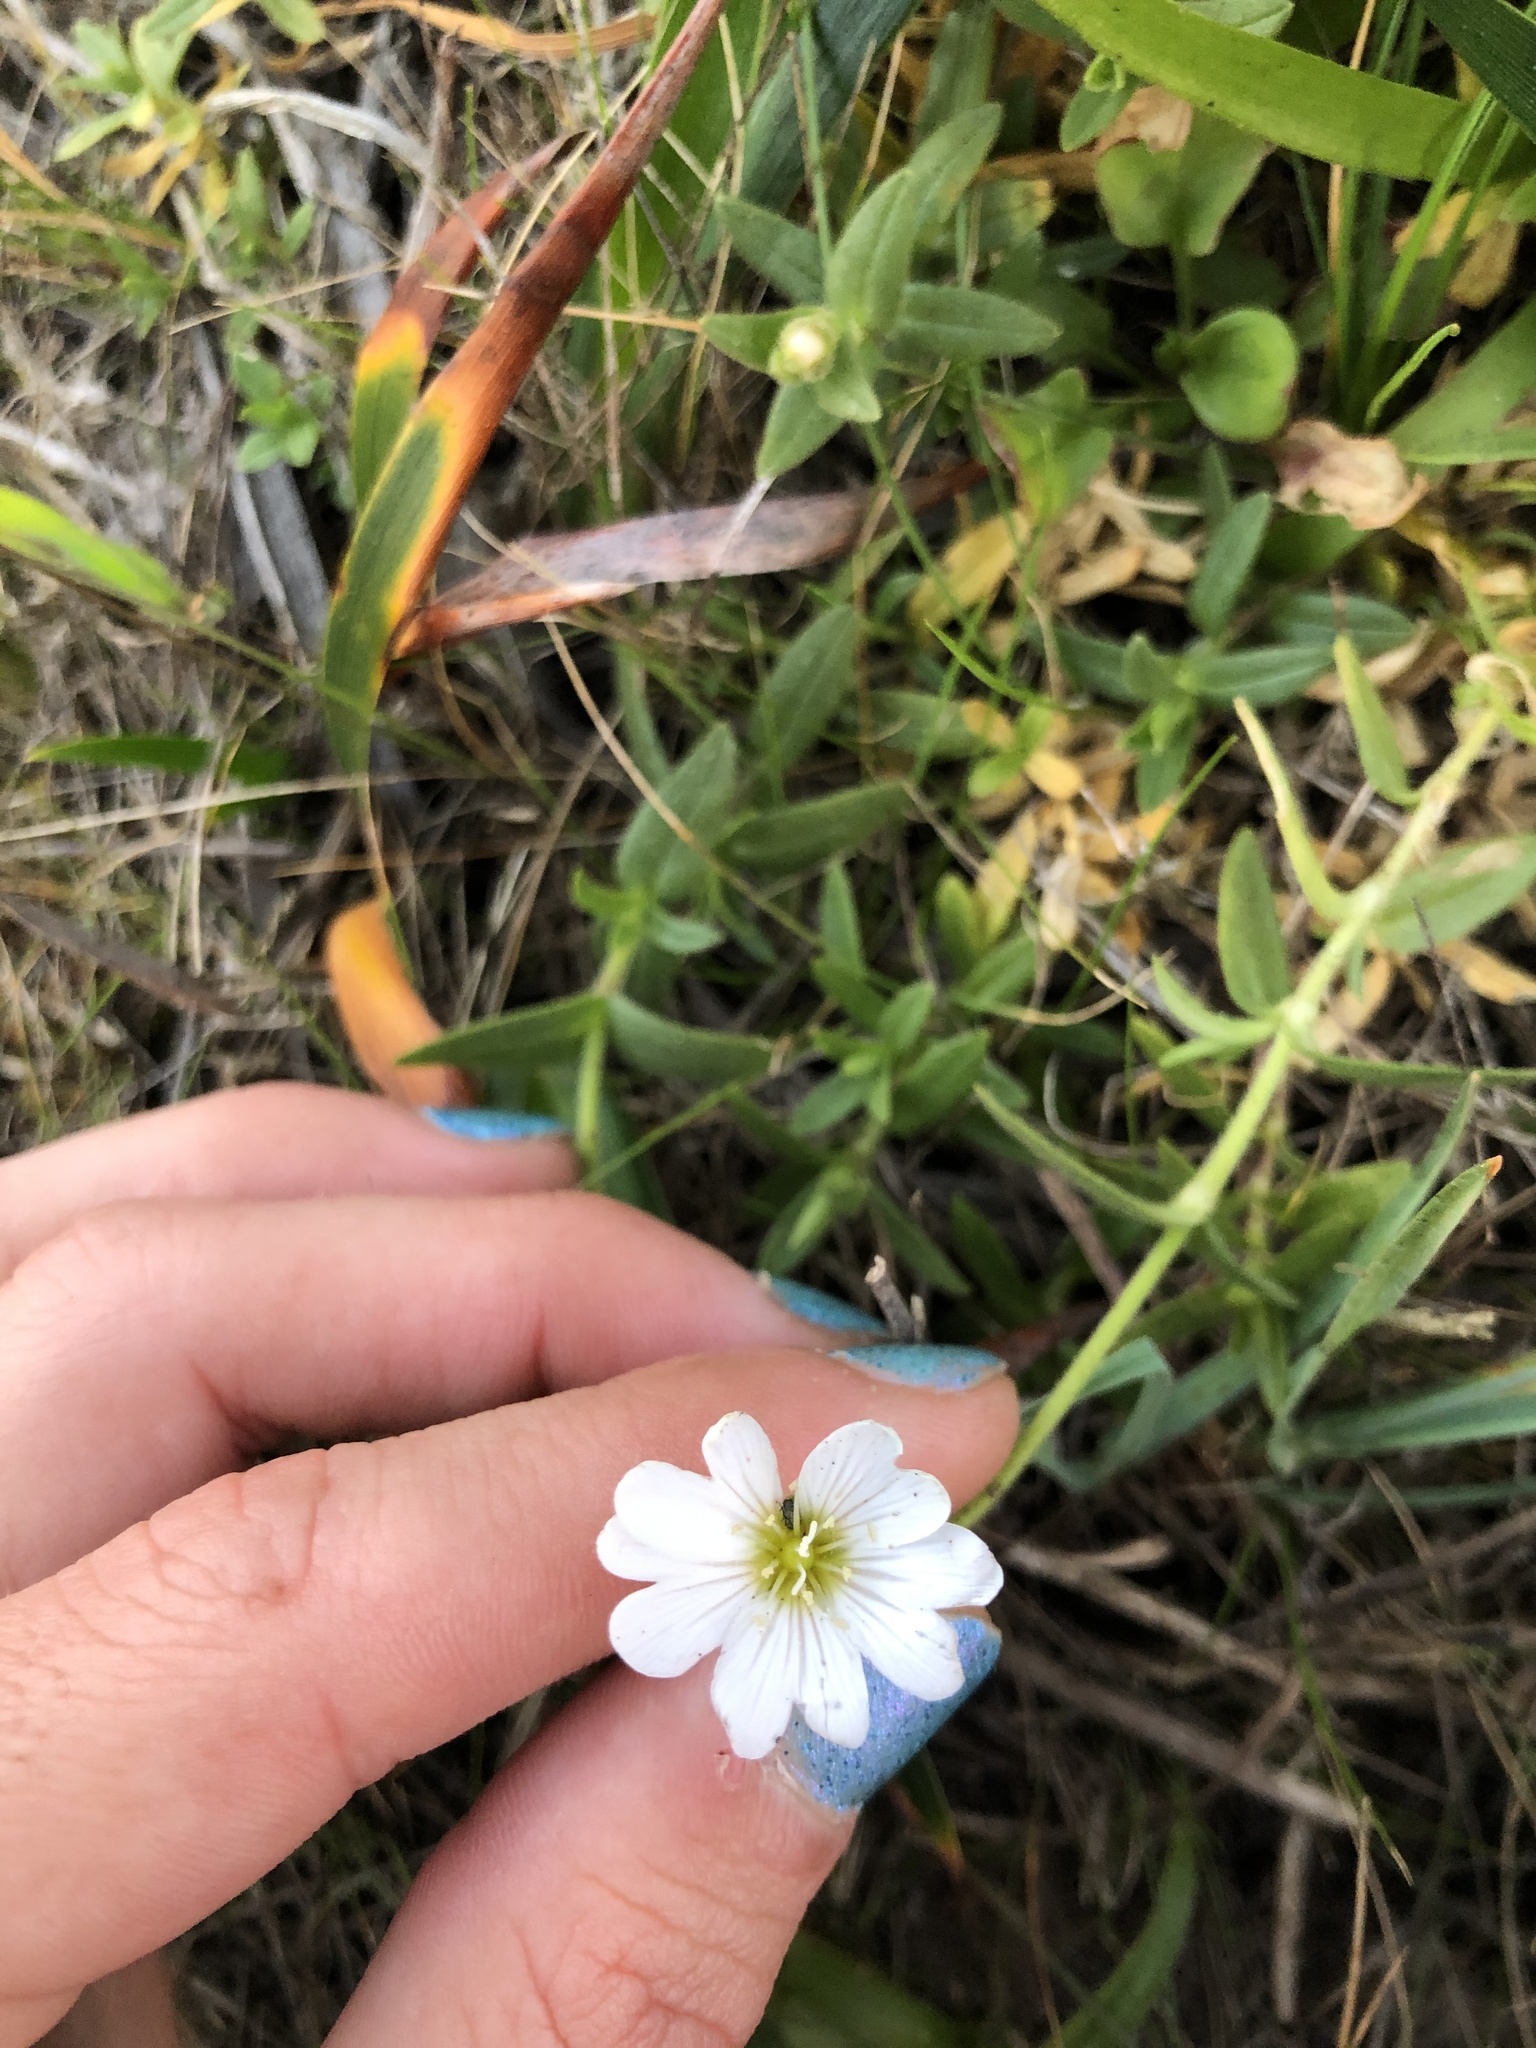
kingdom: Plantae
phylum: Tracheophyta
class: Magnoliopsida
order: Caryophyllales
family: Caryophyllaceae
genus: Cerastium
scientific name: Cerastium arvense
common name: Field mouse-ear
